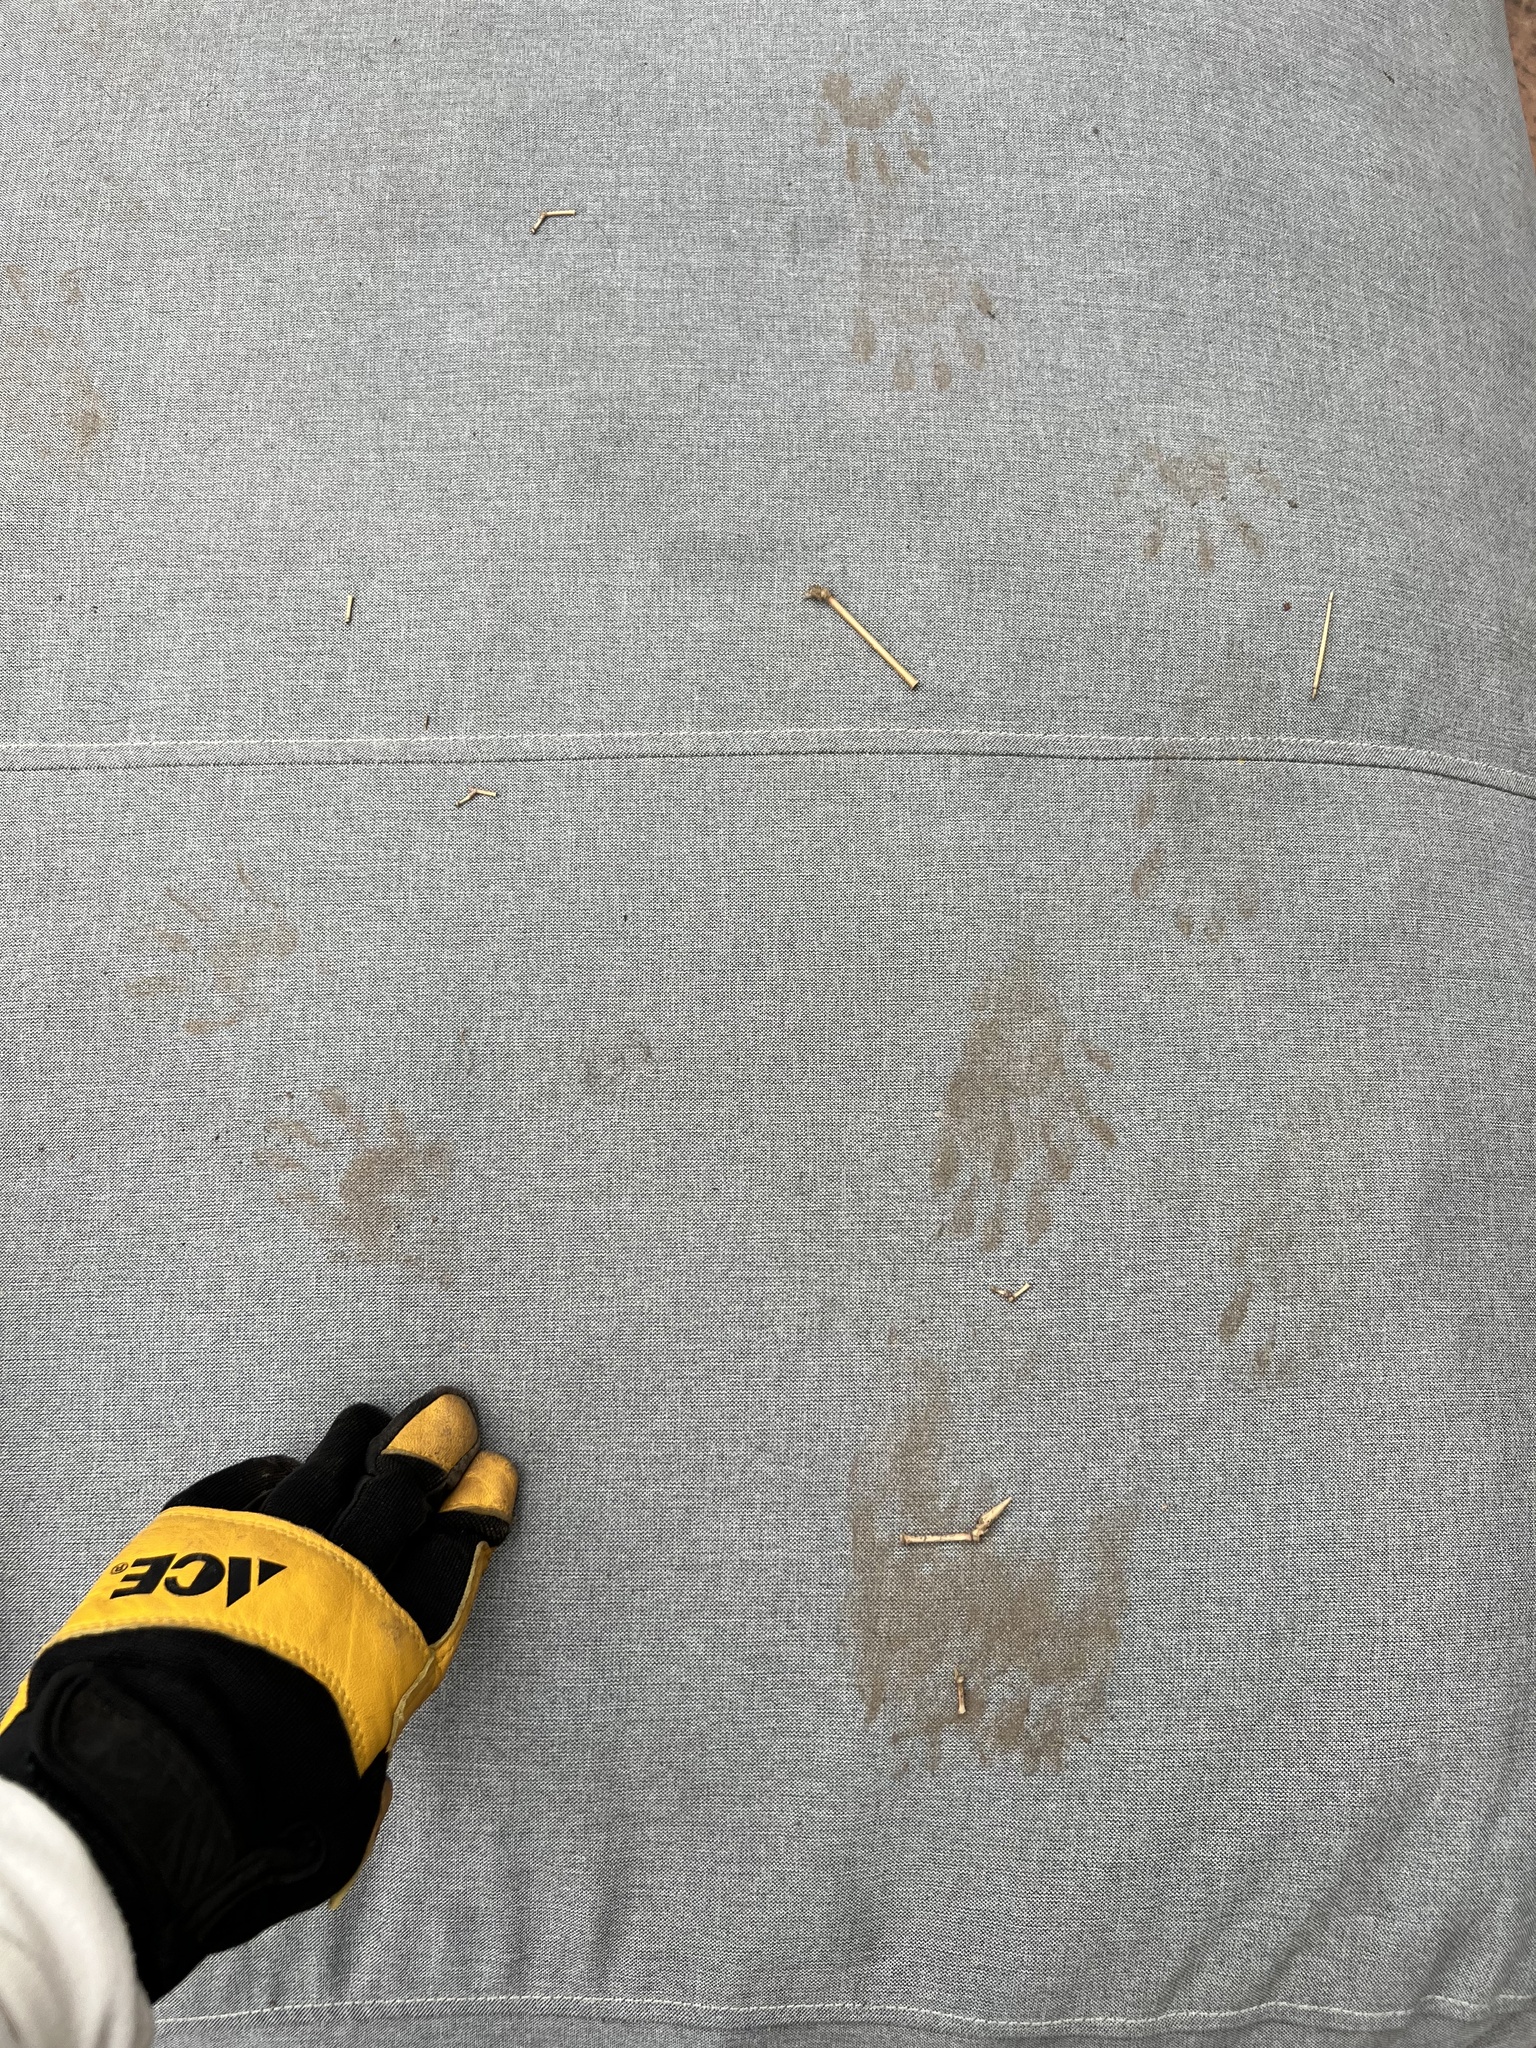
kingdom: Animalia
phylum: Chordata
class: Mammalia
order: Carnivora
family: Procyonidae
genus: Procyon
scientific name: Procyon lotor
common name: Raccoon
